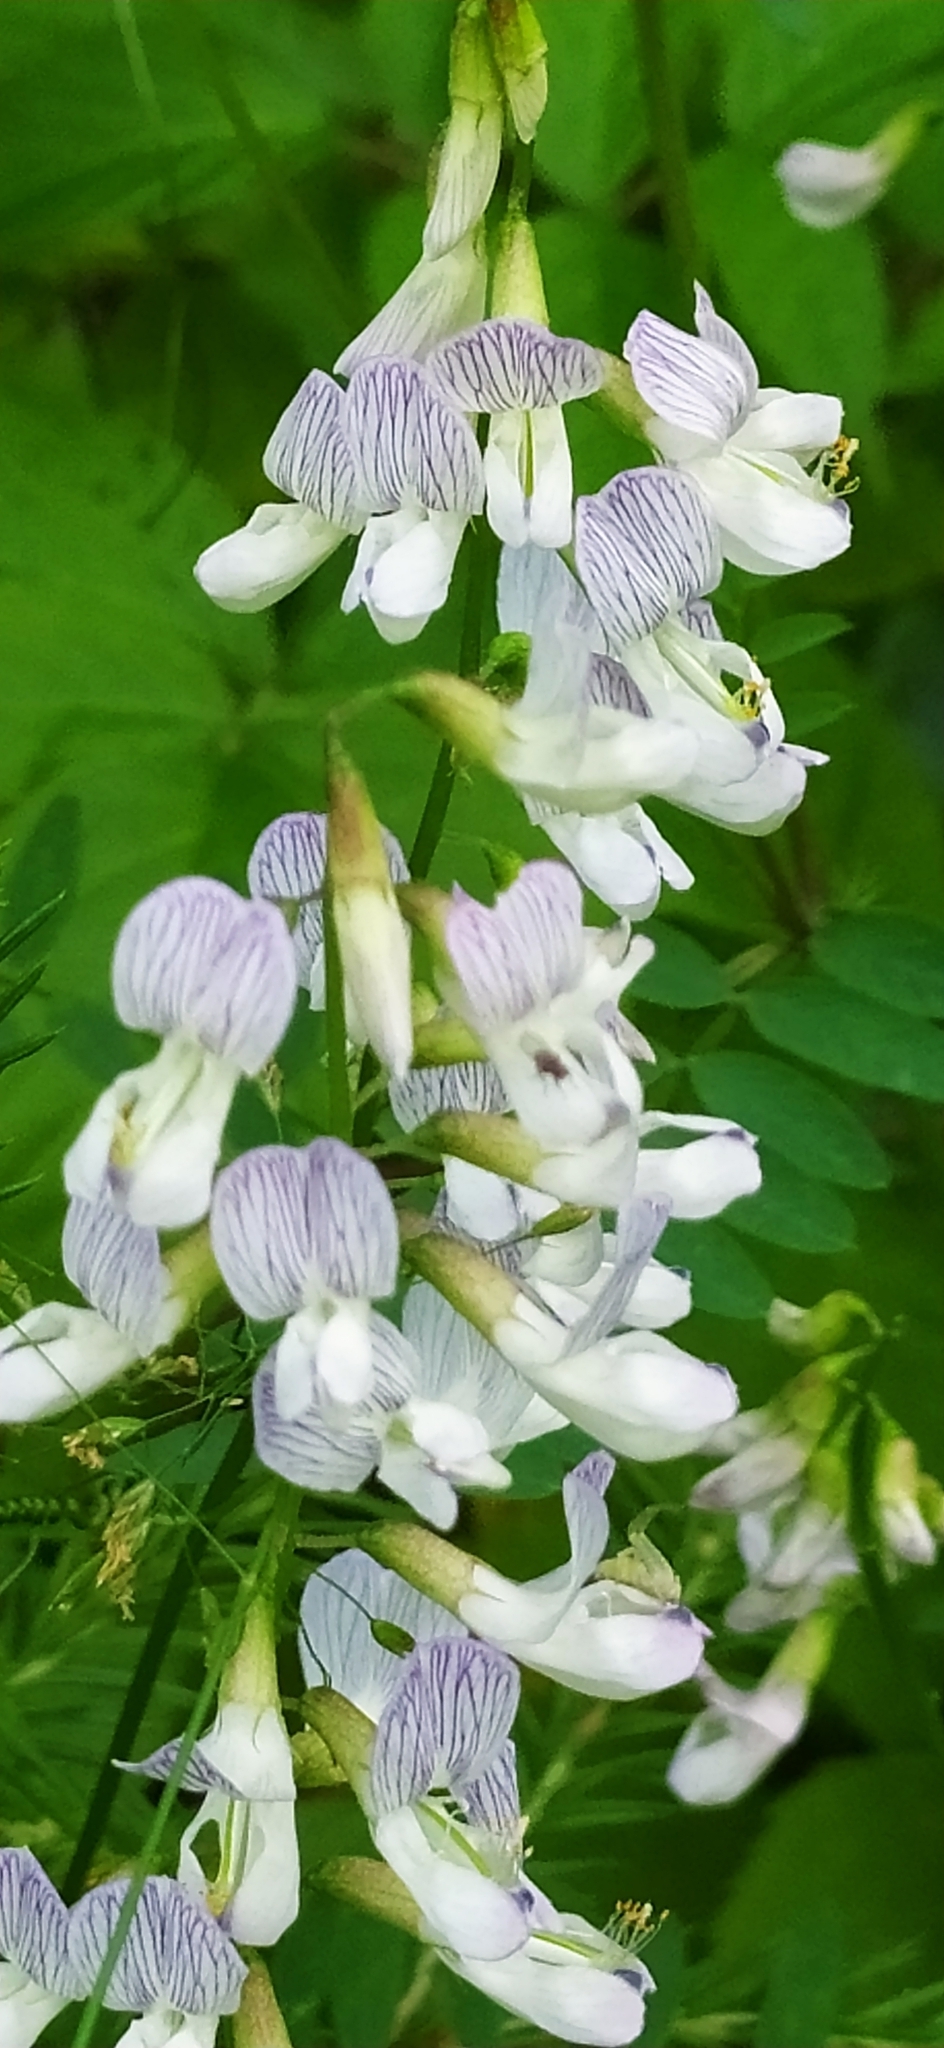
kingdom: Plantae
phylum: Tracheophyta
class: Magnoliopsida
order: Fabales
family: Fabaceae
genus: Vicia
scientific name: Vicia sylvatica
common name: Wood vetch
